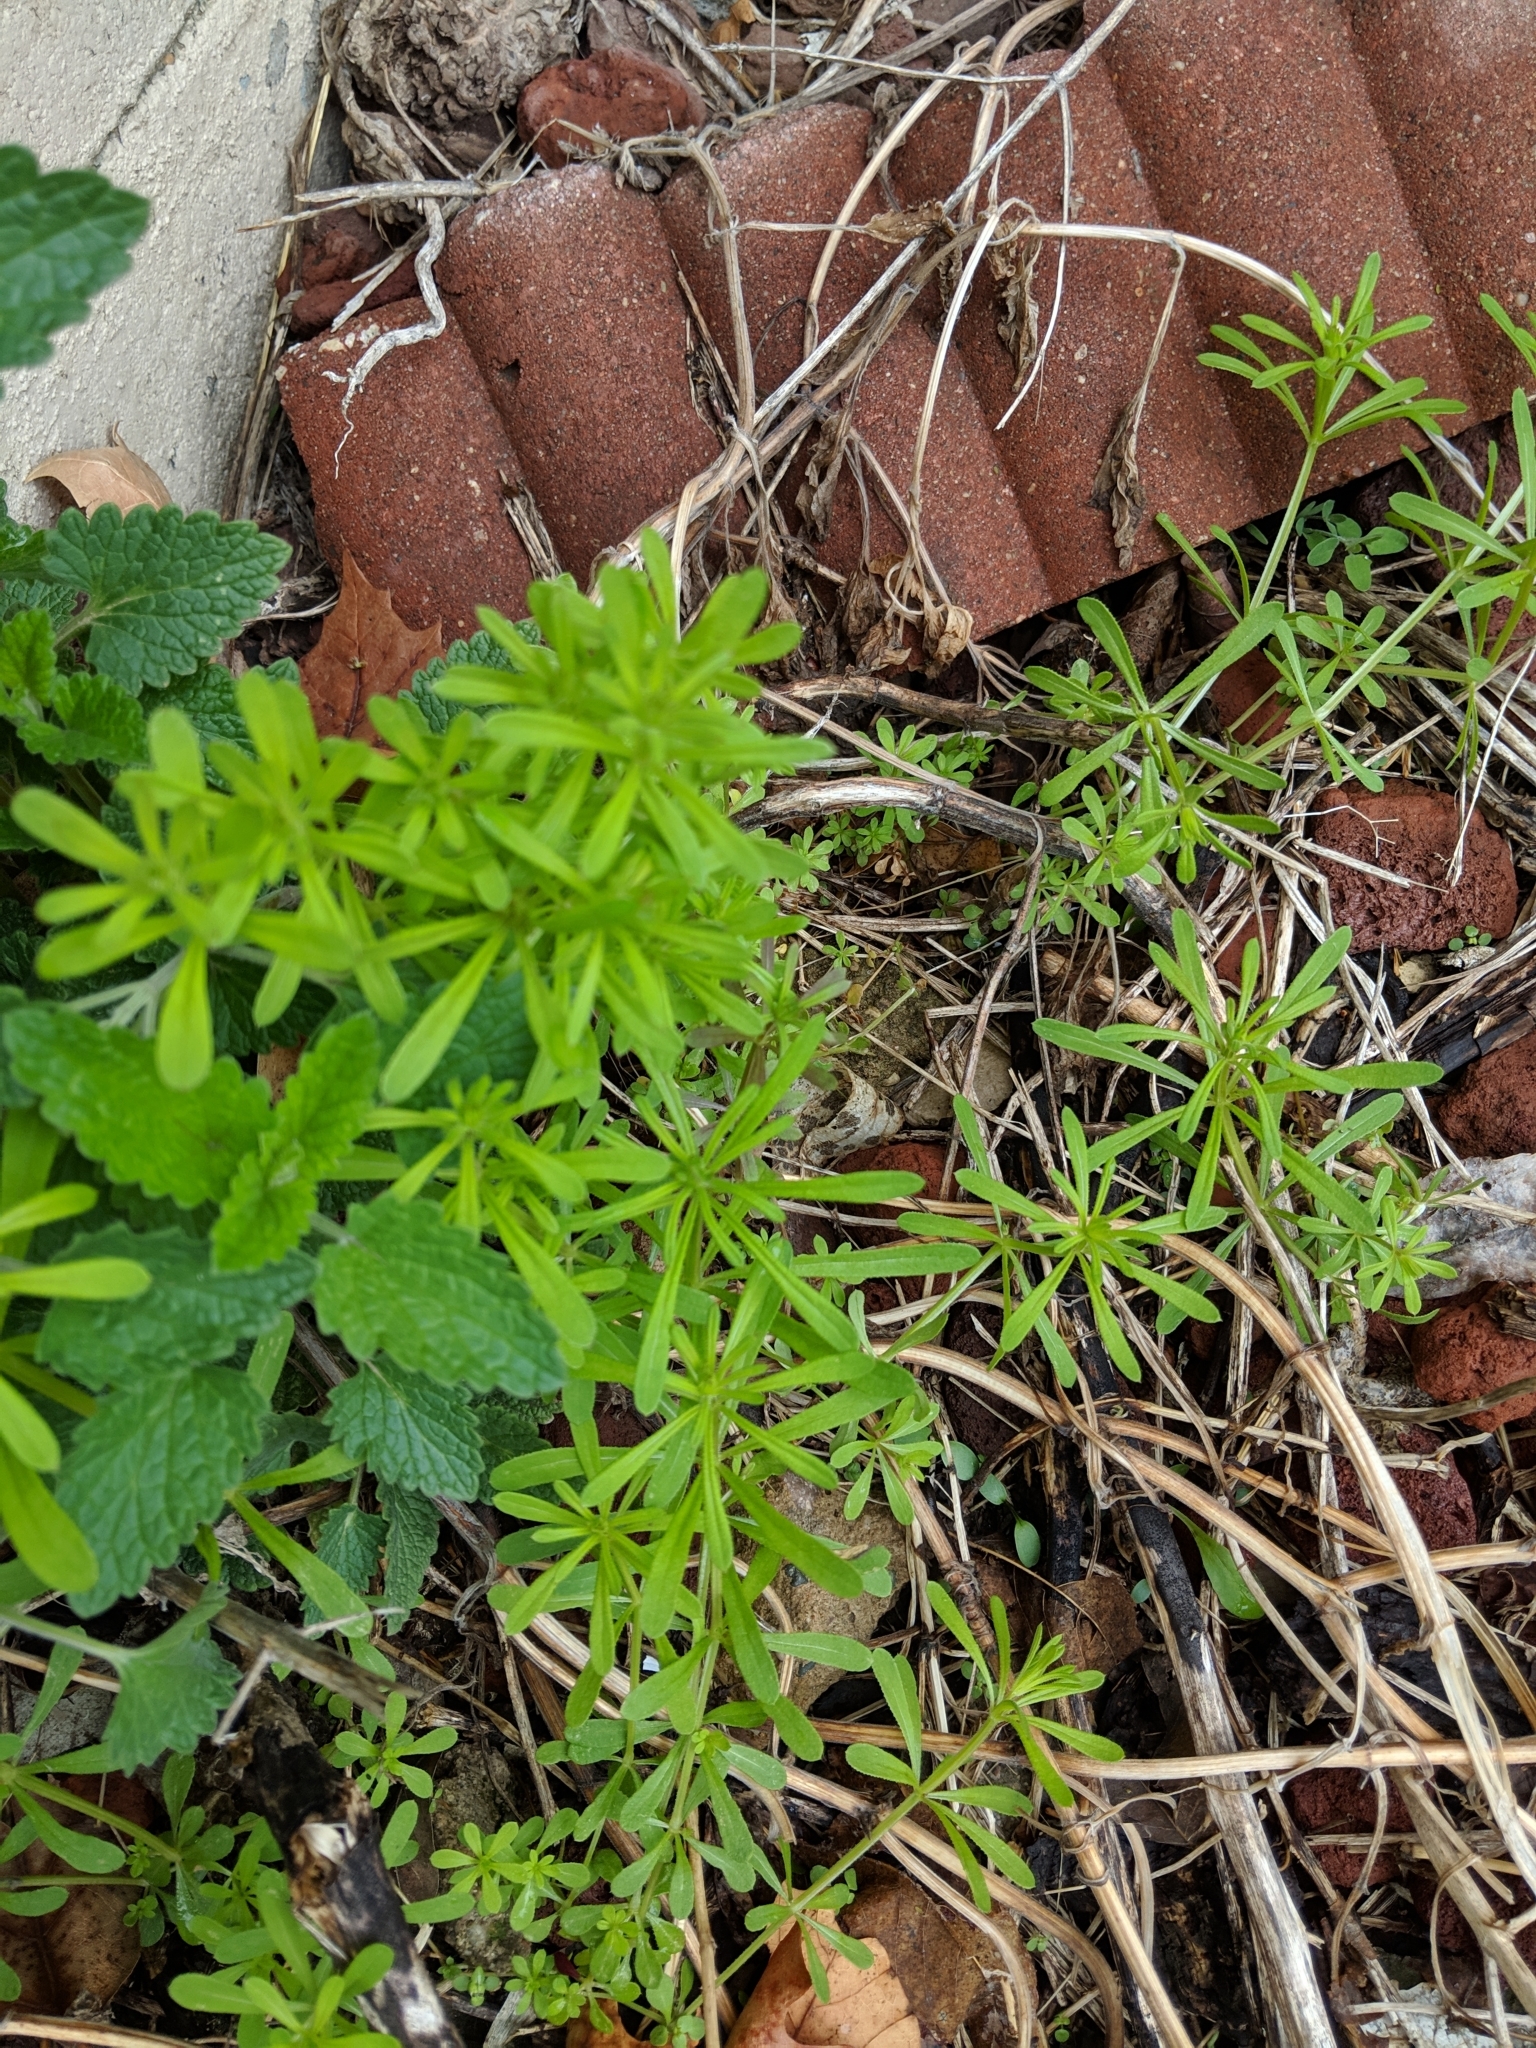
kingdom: Plantae
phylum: Tracheophyta
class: Magnoliopsida
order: Gentianales
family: Rubiaceae
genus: Galium
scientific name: Galium aparine
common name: Cleavers
